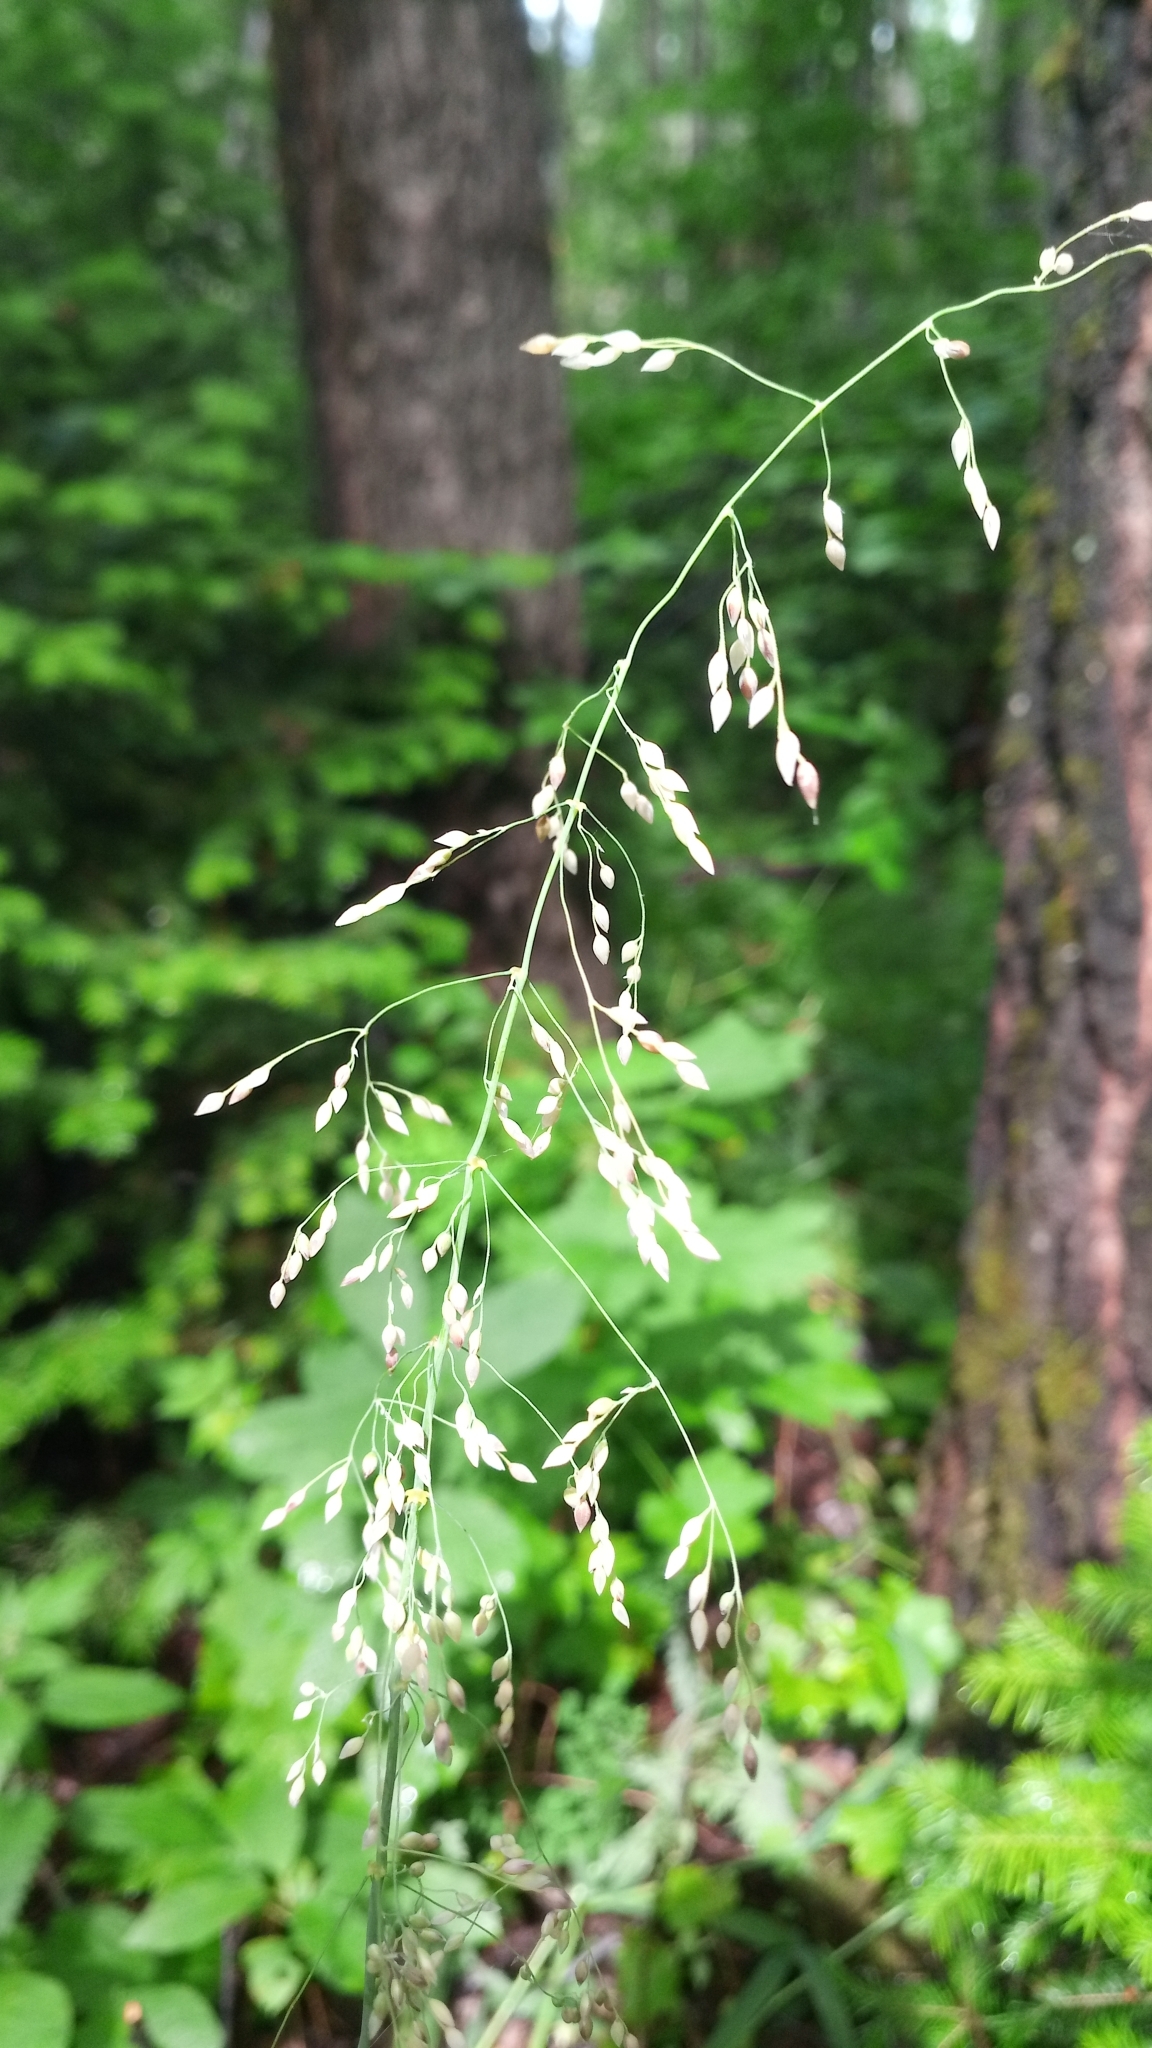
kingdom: Plantae
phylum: Tracheophyta
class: Liliopsida
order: Poales
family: Poaceae
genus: Milium
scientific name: Milium effusum
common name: Wood millet
